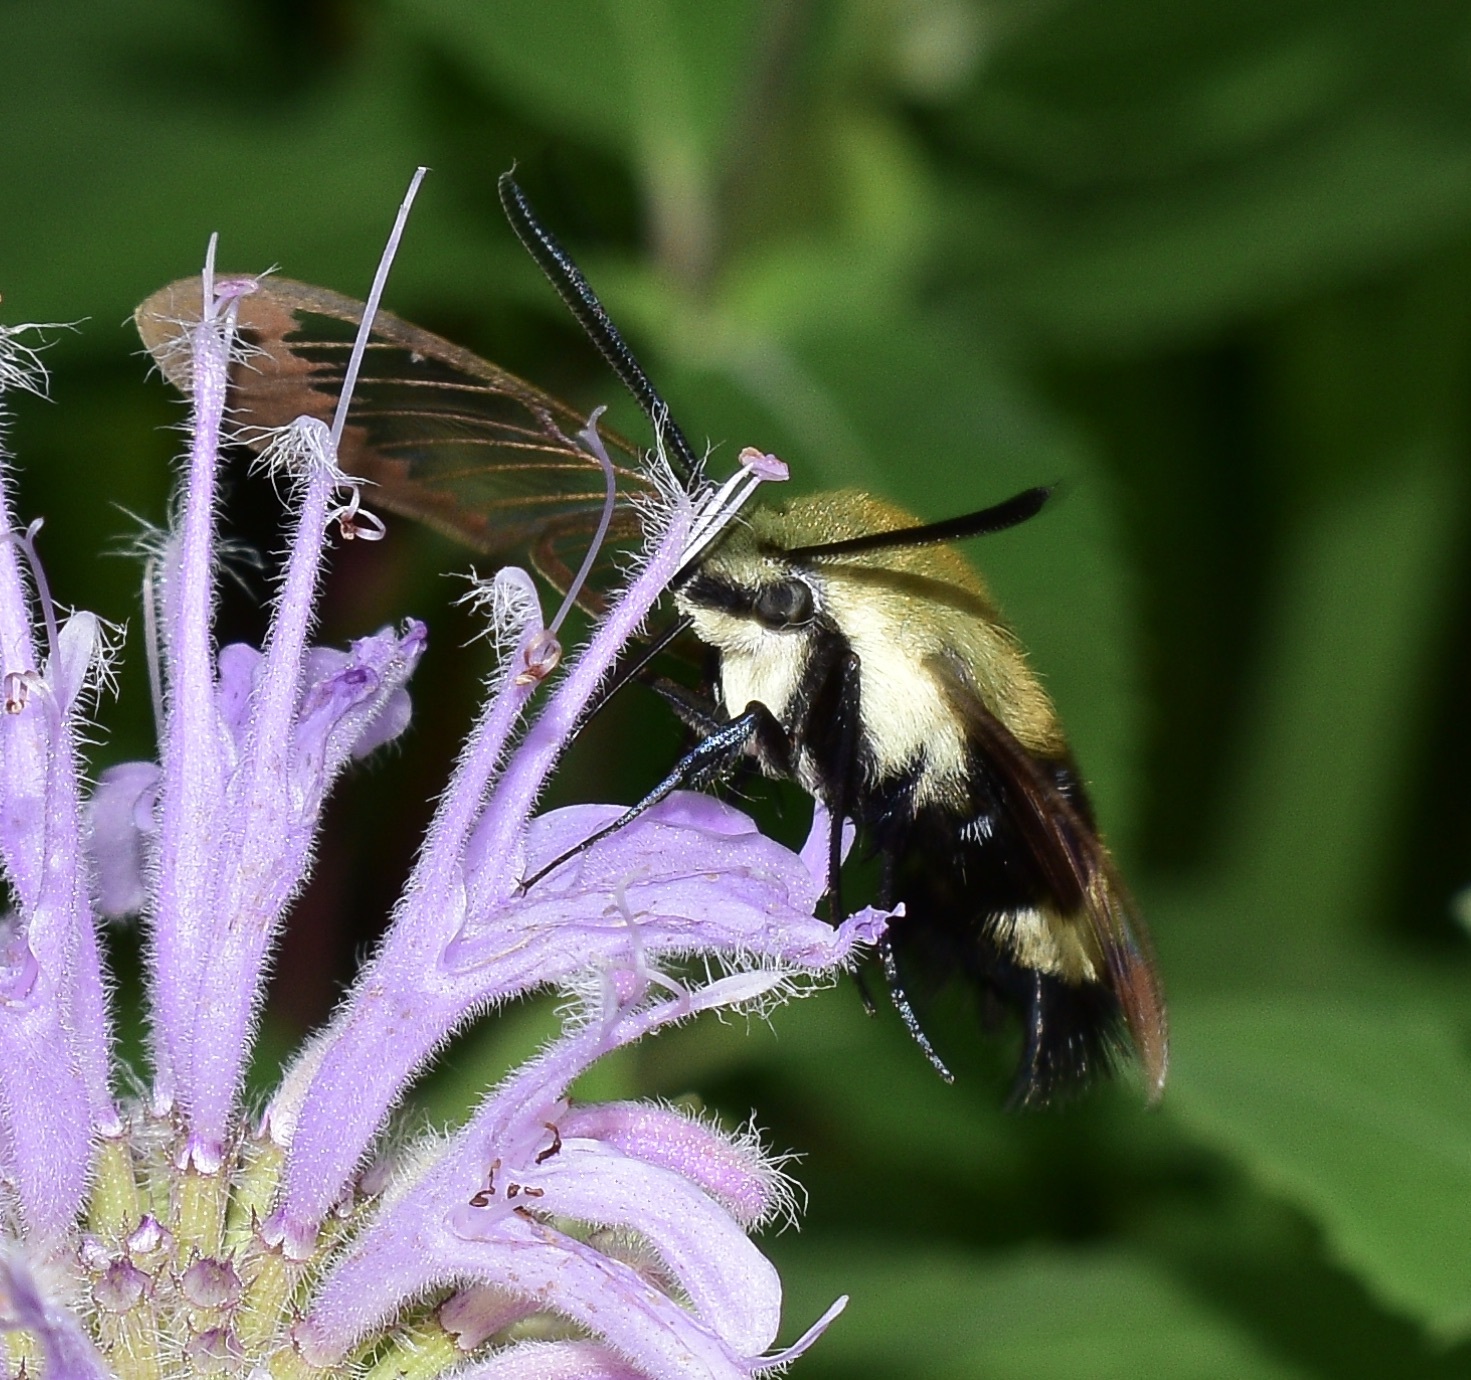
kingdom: Animalia
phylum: Arthropoda
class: Insecta
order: Lepidoptera
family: Sphingidae
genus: Hemaris
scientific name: Hemaris diffinis
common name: Bumblebee moth
